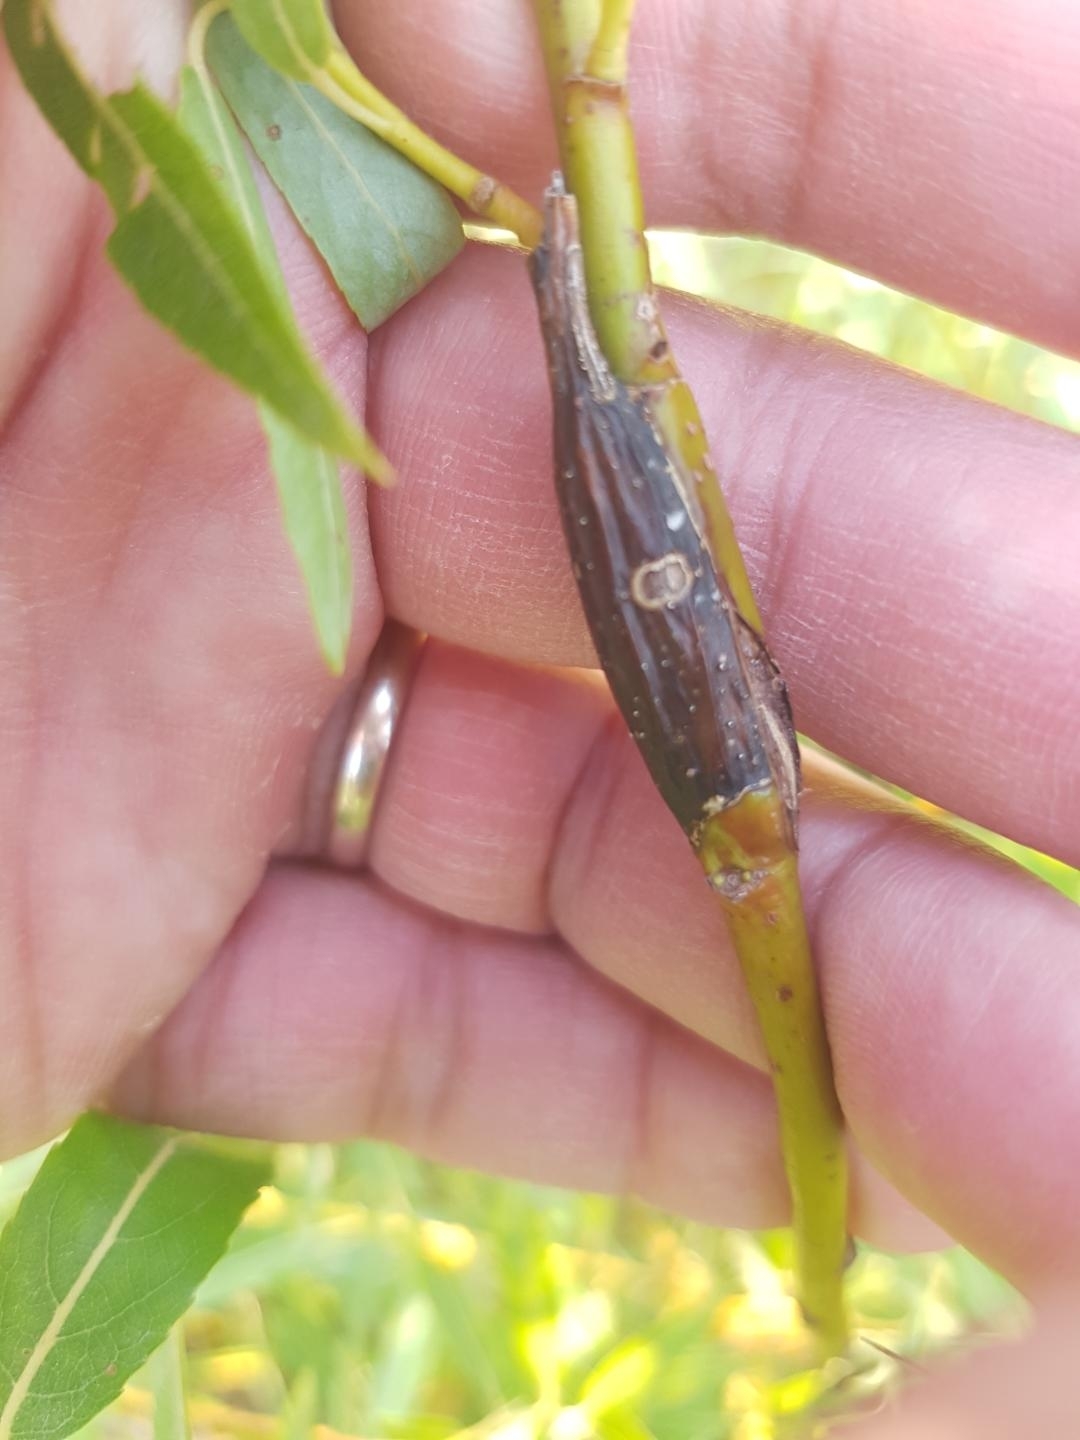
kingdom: Animalia
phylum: Arthropoda
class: Insecta
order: Diptera
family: Cecidomyiidae
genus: Thecodiplosis
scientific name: Thecodiplosis pinirigidae
